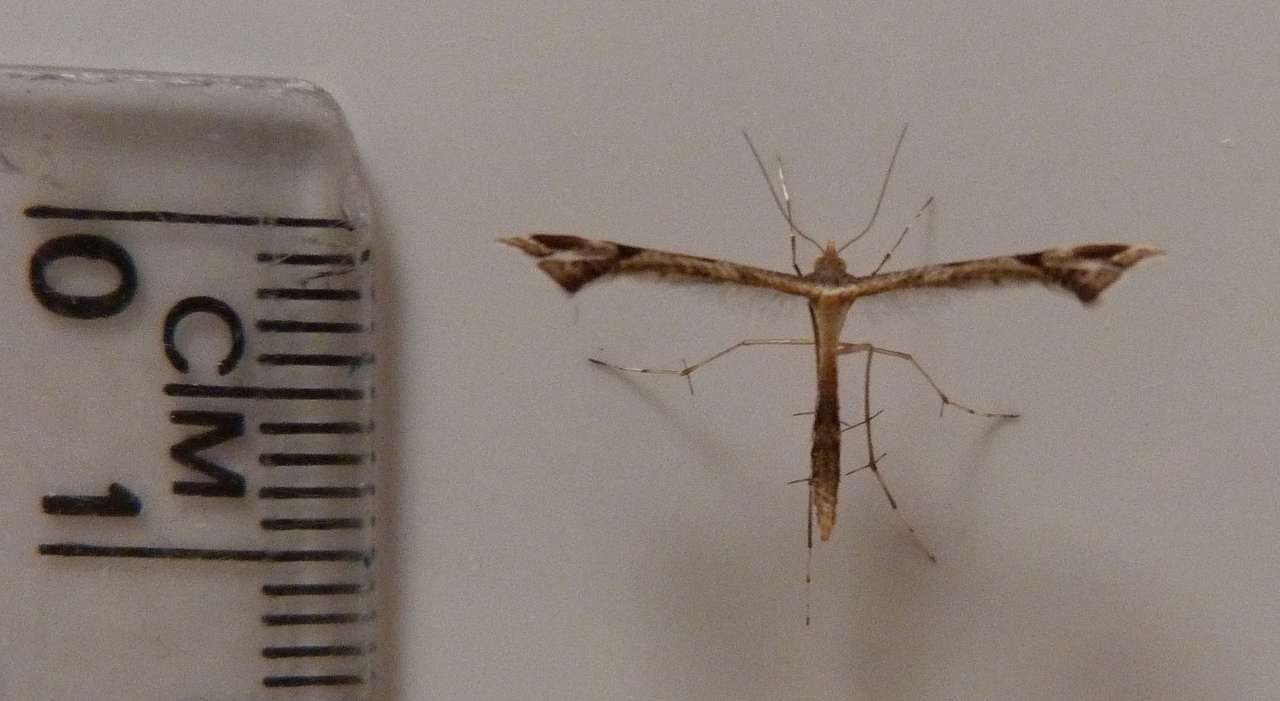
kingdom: Animalia
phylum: Arthropoda
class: Insecta
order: Lepidoptera
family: Pterophoridae
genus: Sinpunctiptilia
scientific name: Sinpunctiptilia emissalis
